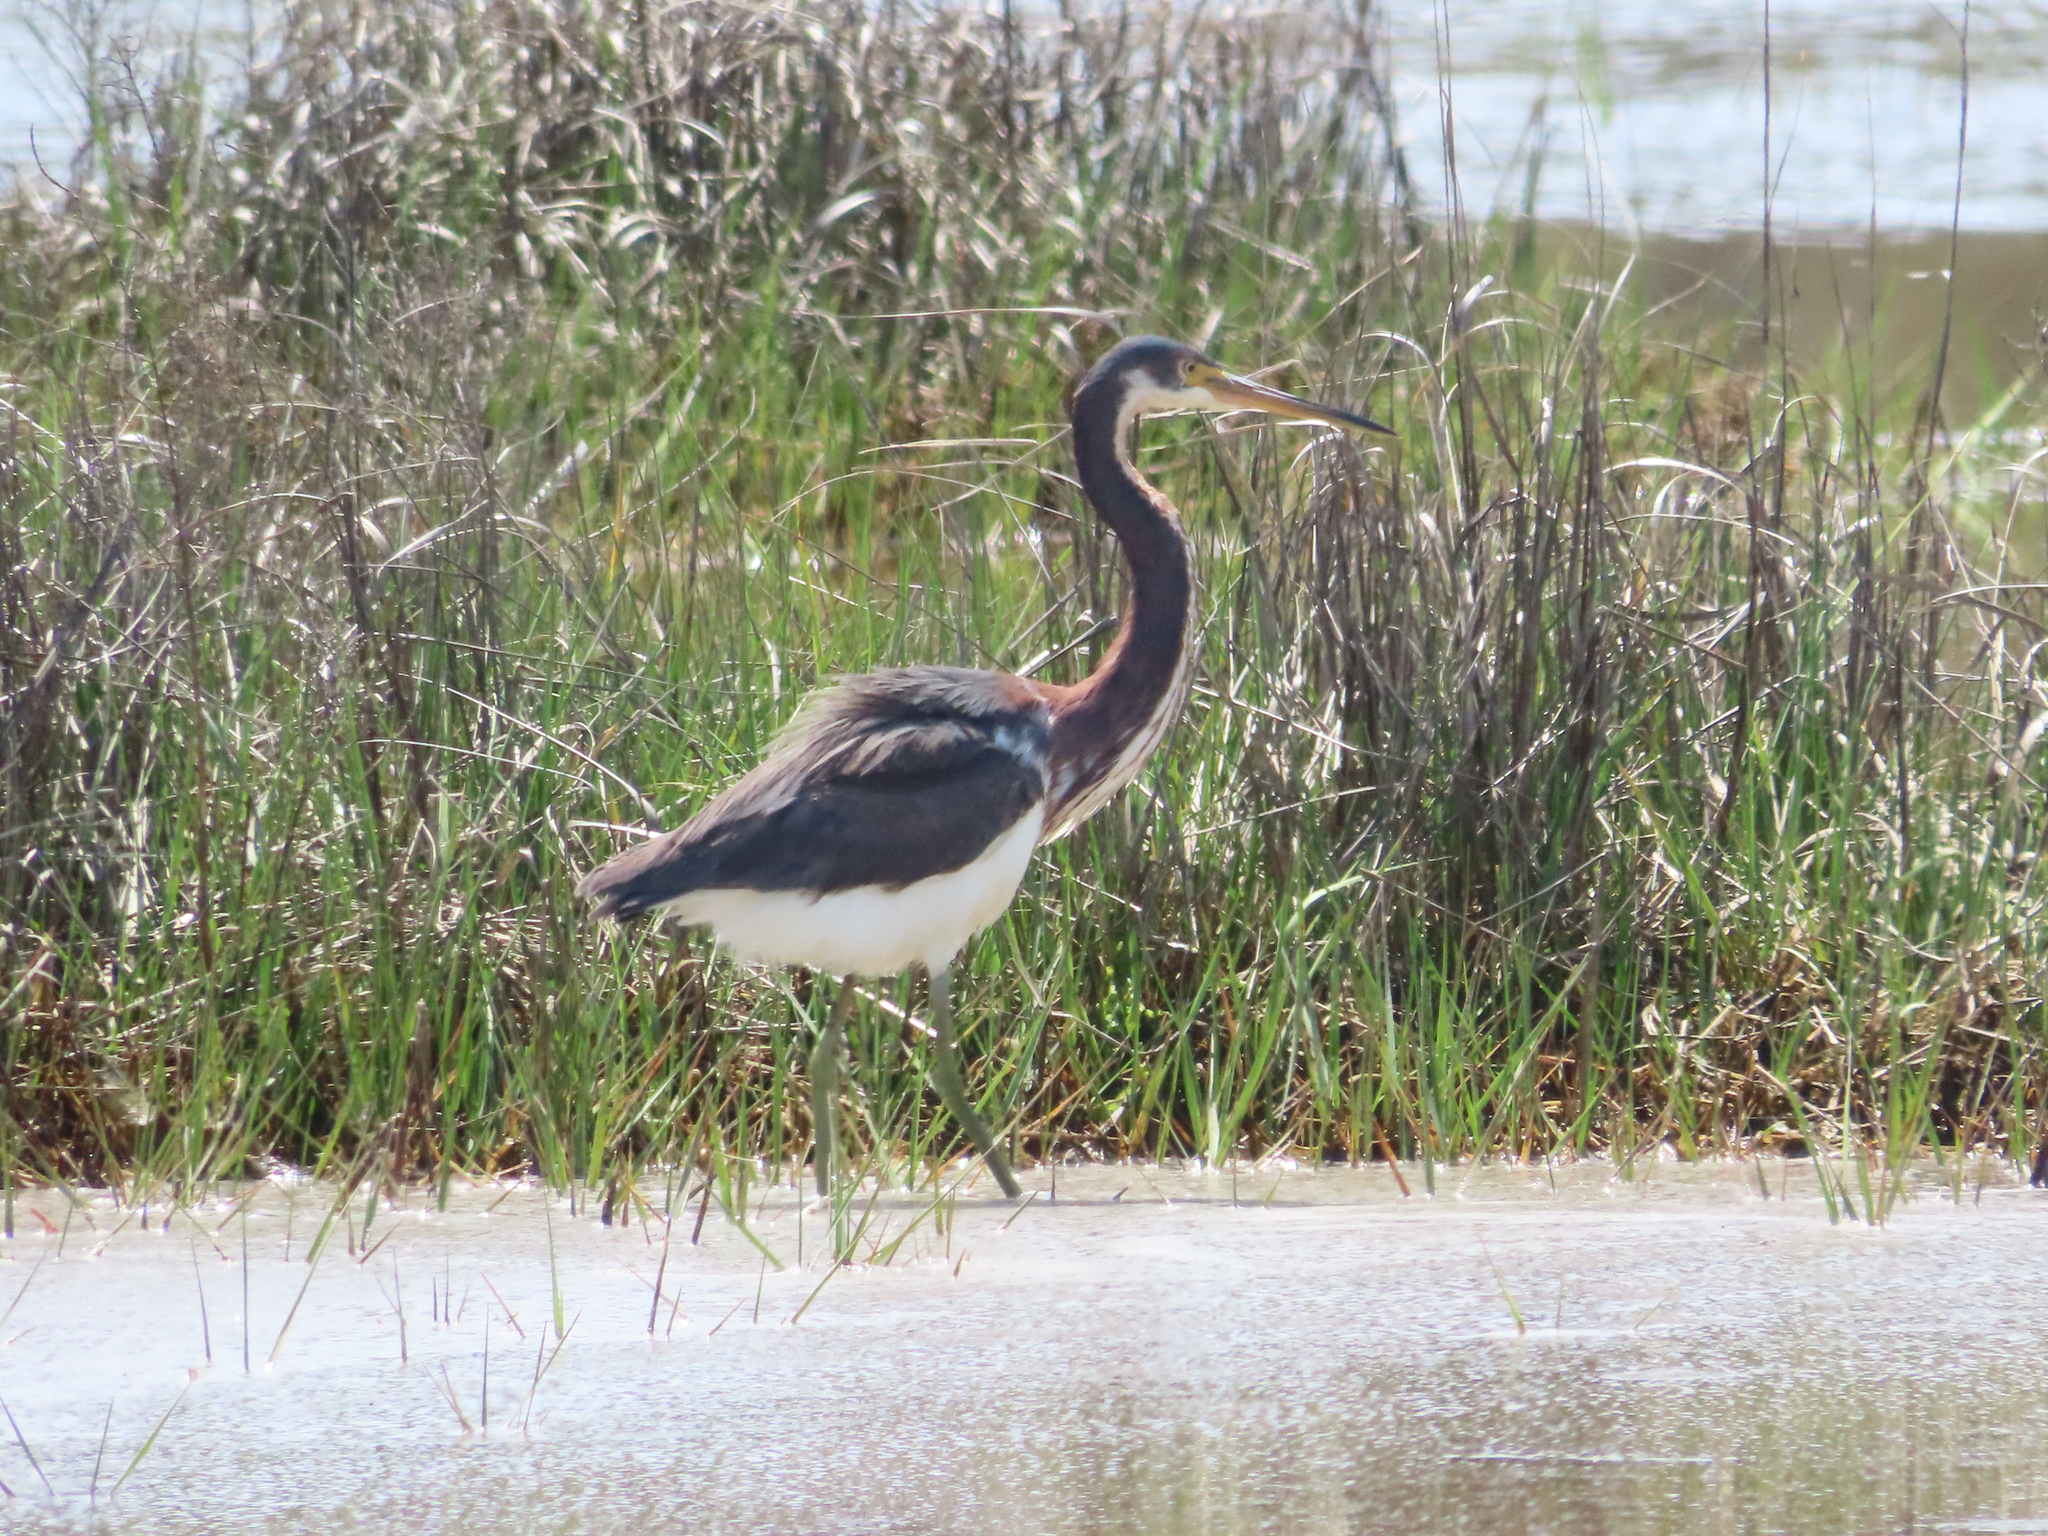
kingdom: Animalia
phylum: Chordata
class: Aves
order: Pelecaniformes
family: Ardeidae
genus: Egretta
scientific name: Egretta tricolor
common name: Tricolored heron
